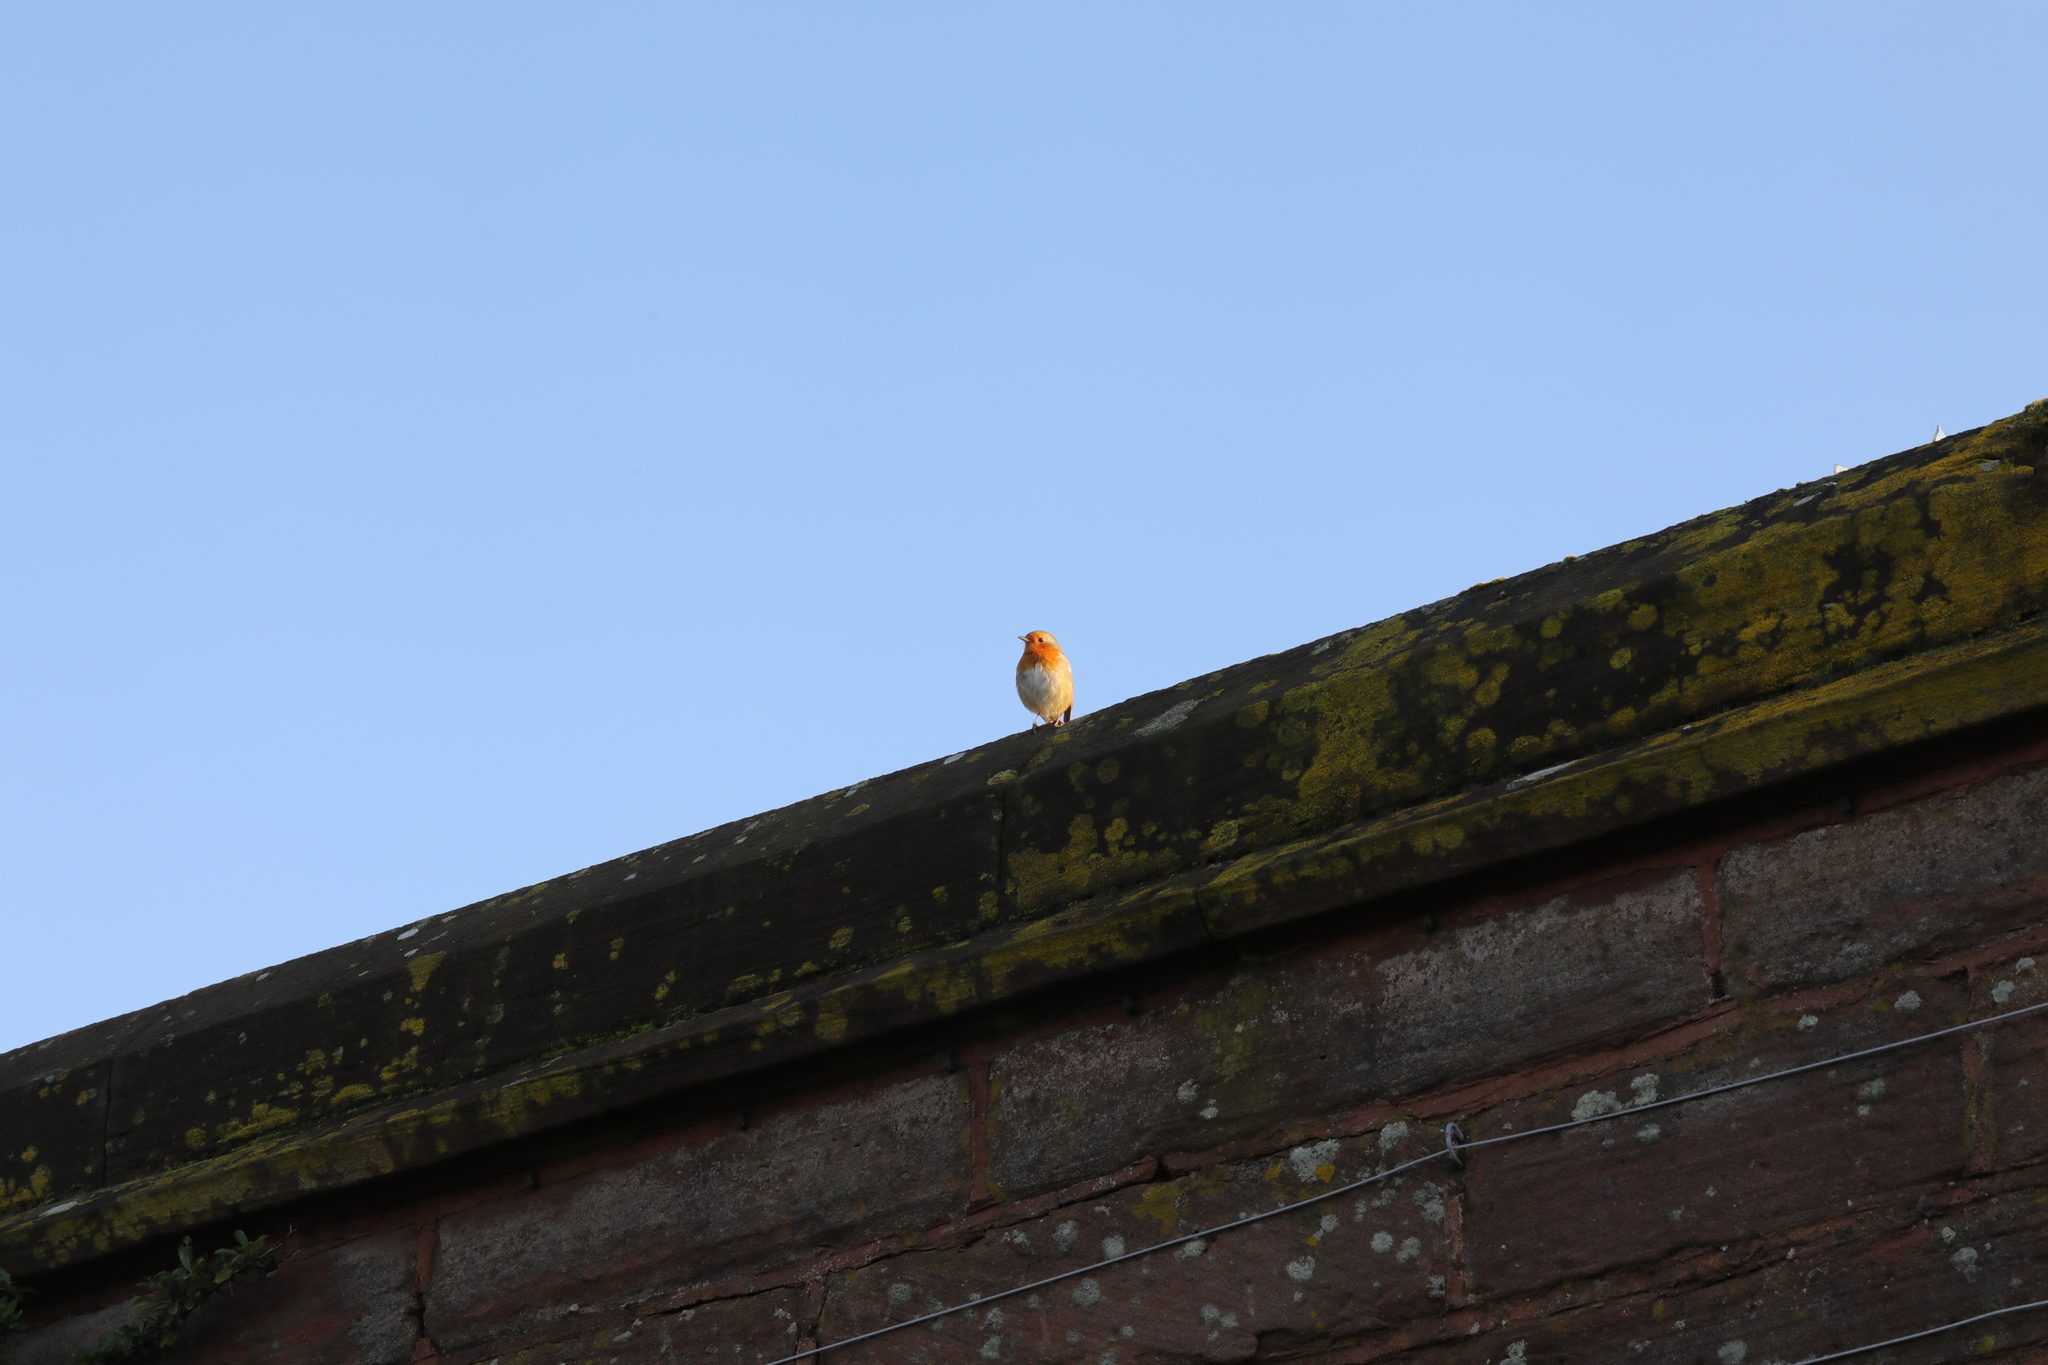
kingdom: Animalia
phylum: Chordata
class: Aves
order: Passeriformes
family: Muscicapidae
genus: Erithacus
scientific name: Erithacus rubecula
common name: European robin
